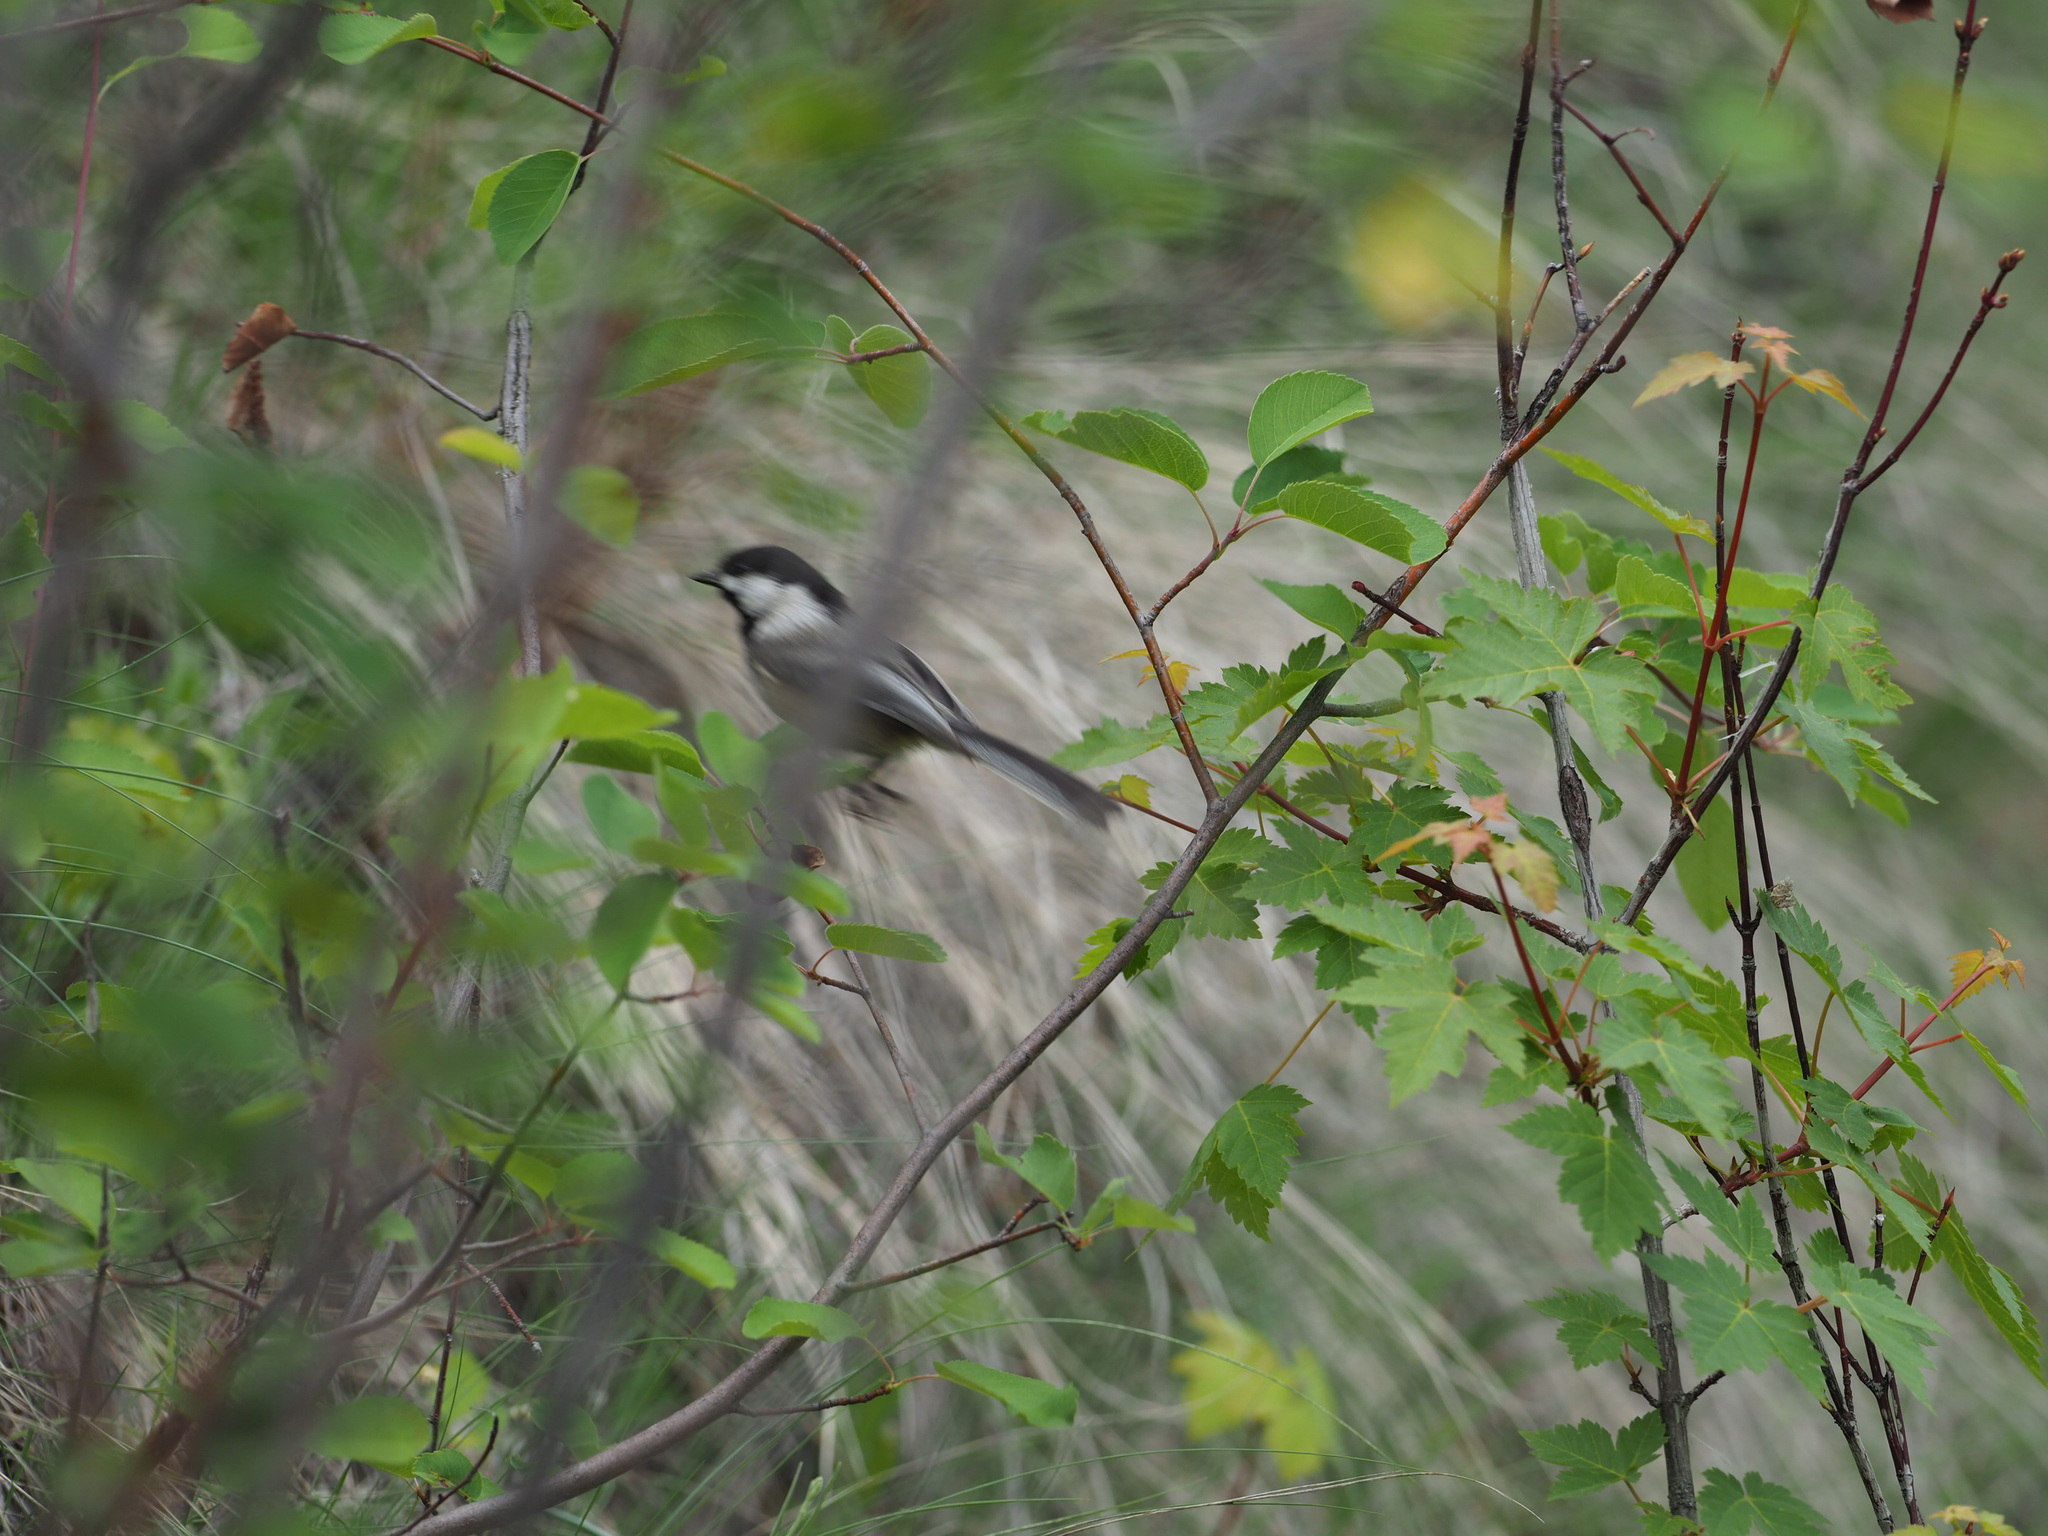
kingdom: Animalia
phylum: Chordata
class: Aves
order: Passeriformes
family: Paridae
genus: Poecile
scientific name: Poecile atricapillus
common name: Black-capped chickadee
